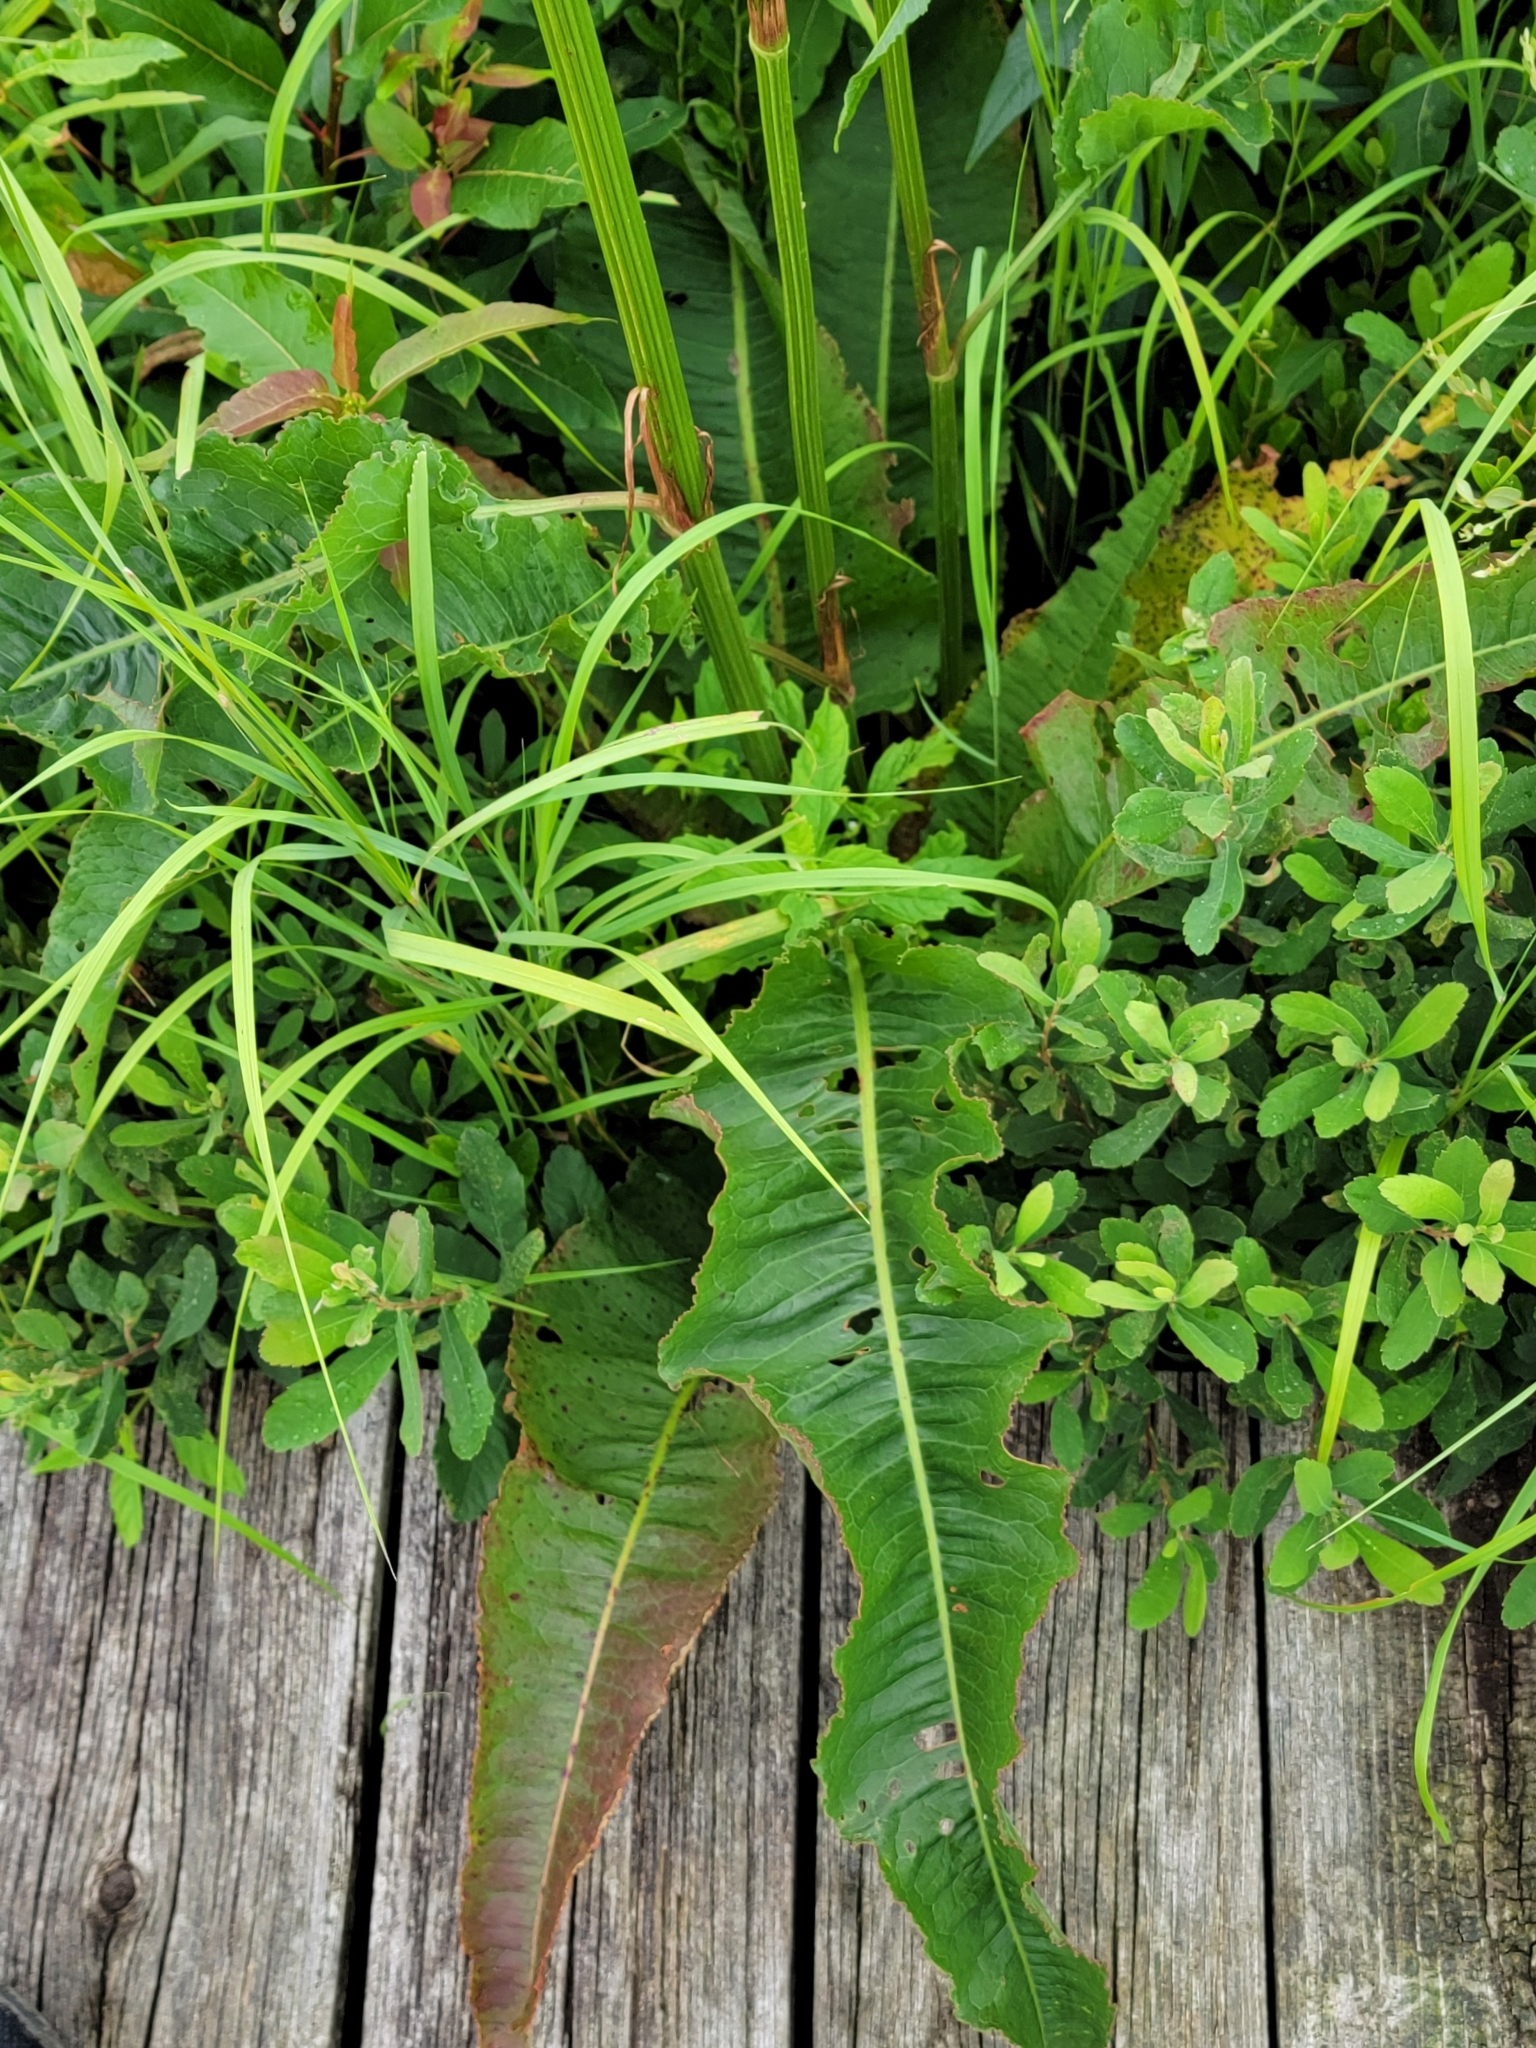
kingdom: Plantae
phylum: Tracheophyta
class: Magnoliopsida
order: Caryophyllales
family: Polygonaceae
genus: Rumex
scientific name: Rumex britannica
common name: British dock
